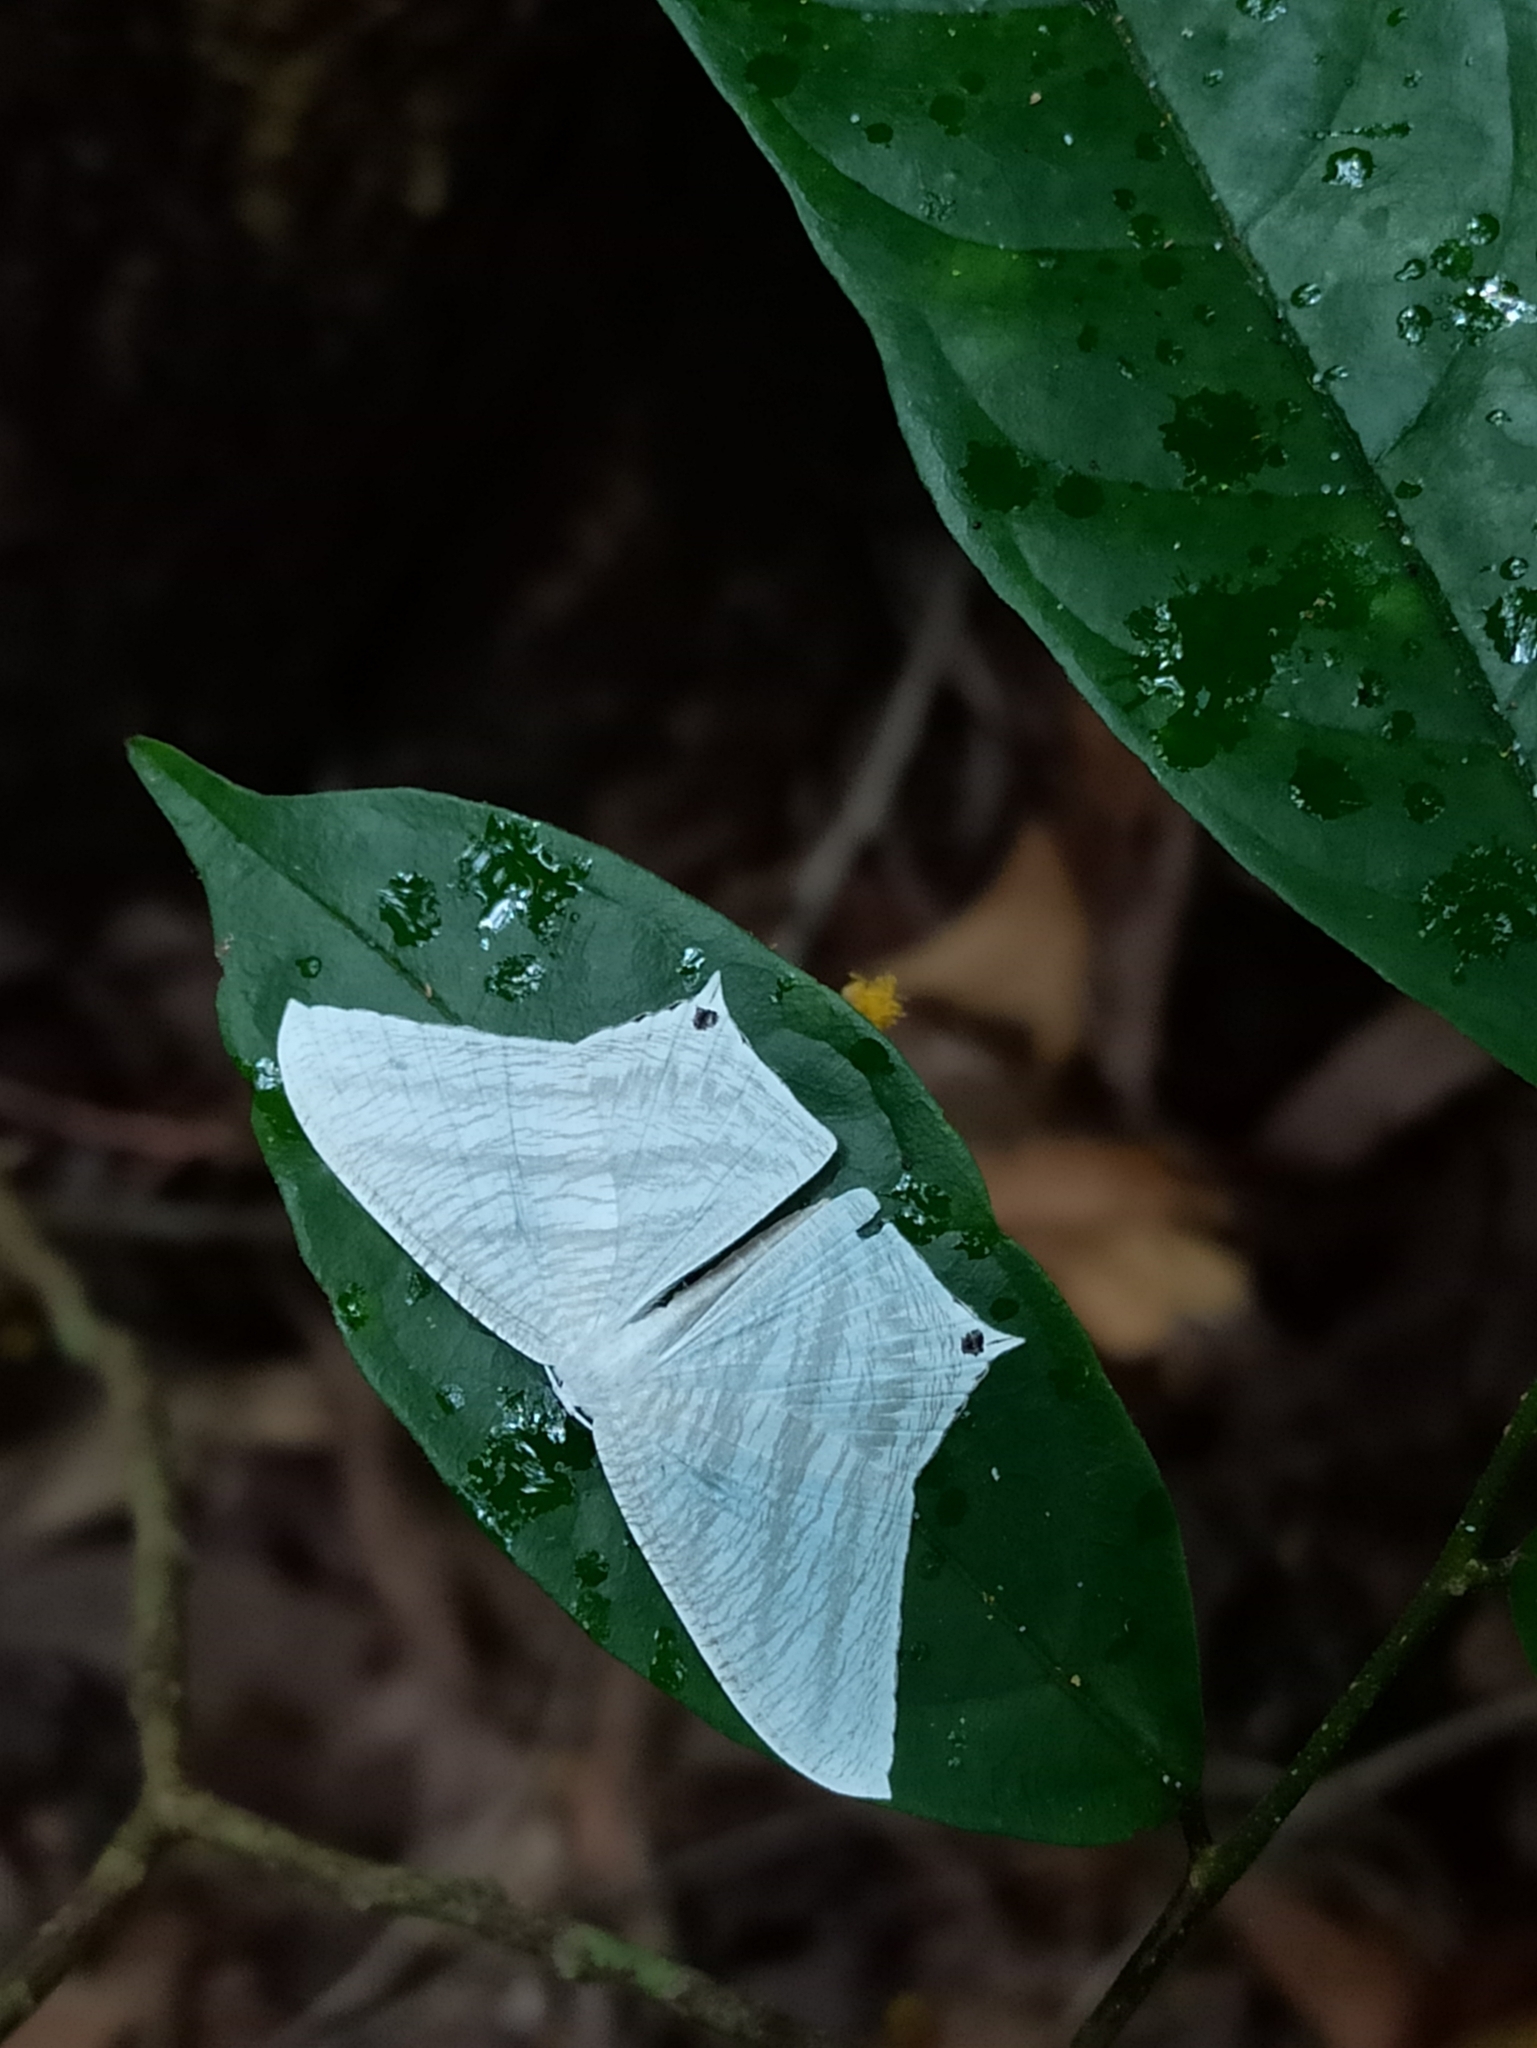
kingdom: Animalia
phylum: Arthropoda
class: Insecta
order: Lepidoptera
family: Uraniidae
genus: Micronia
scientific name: Micronia aculeata
